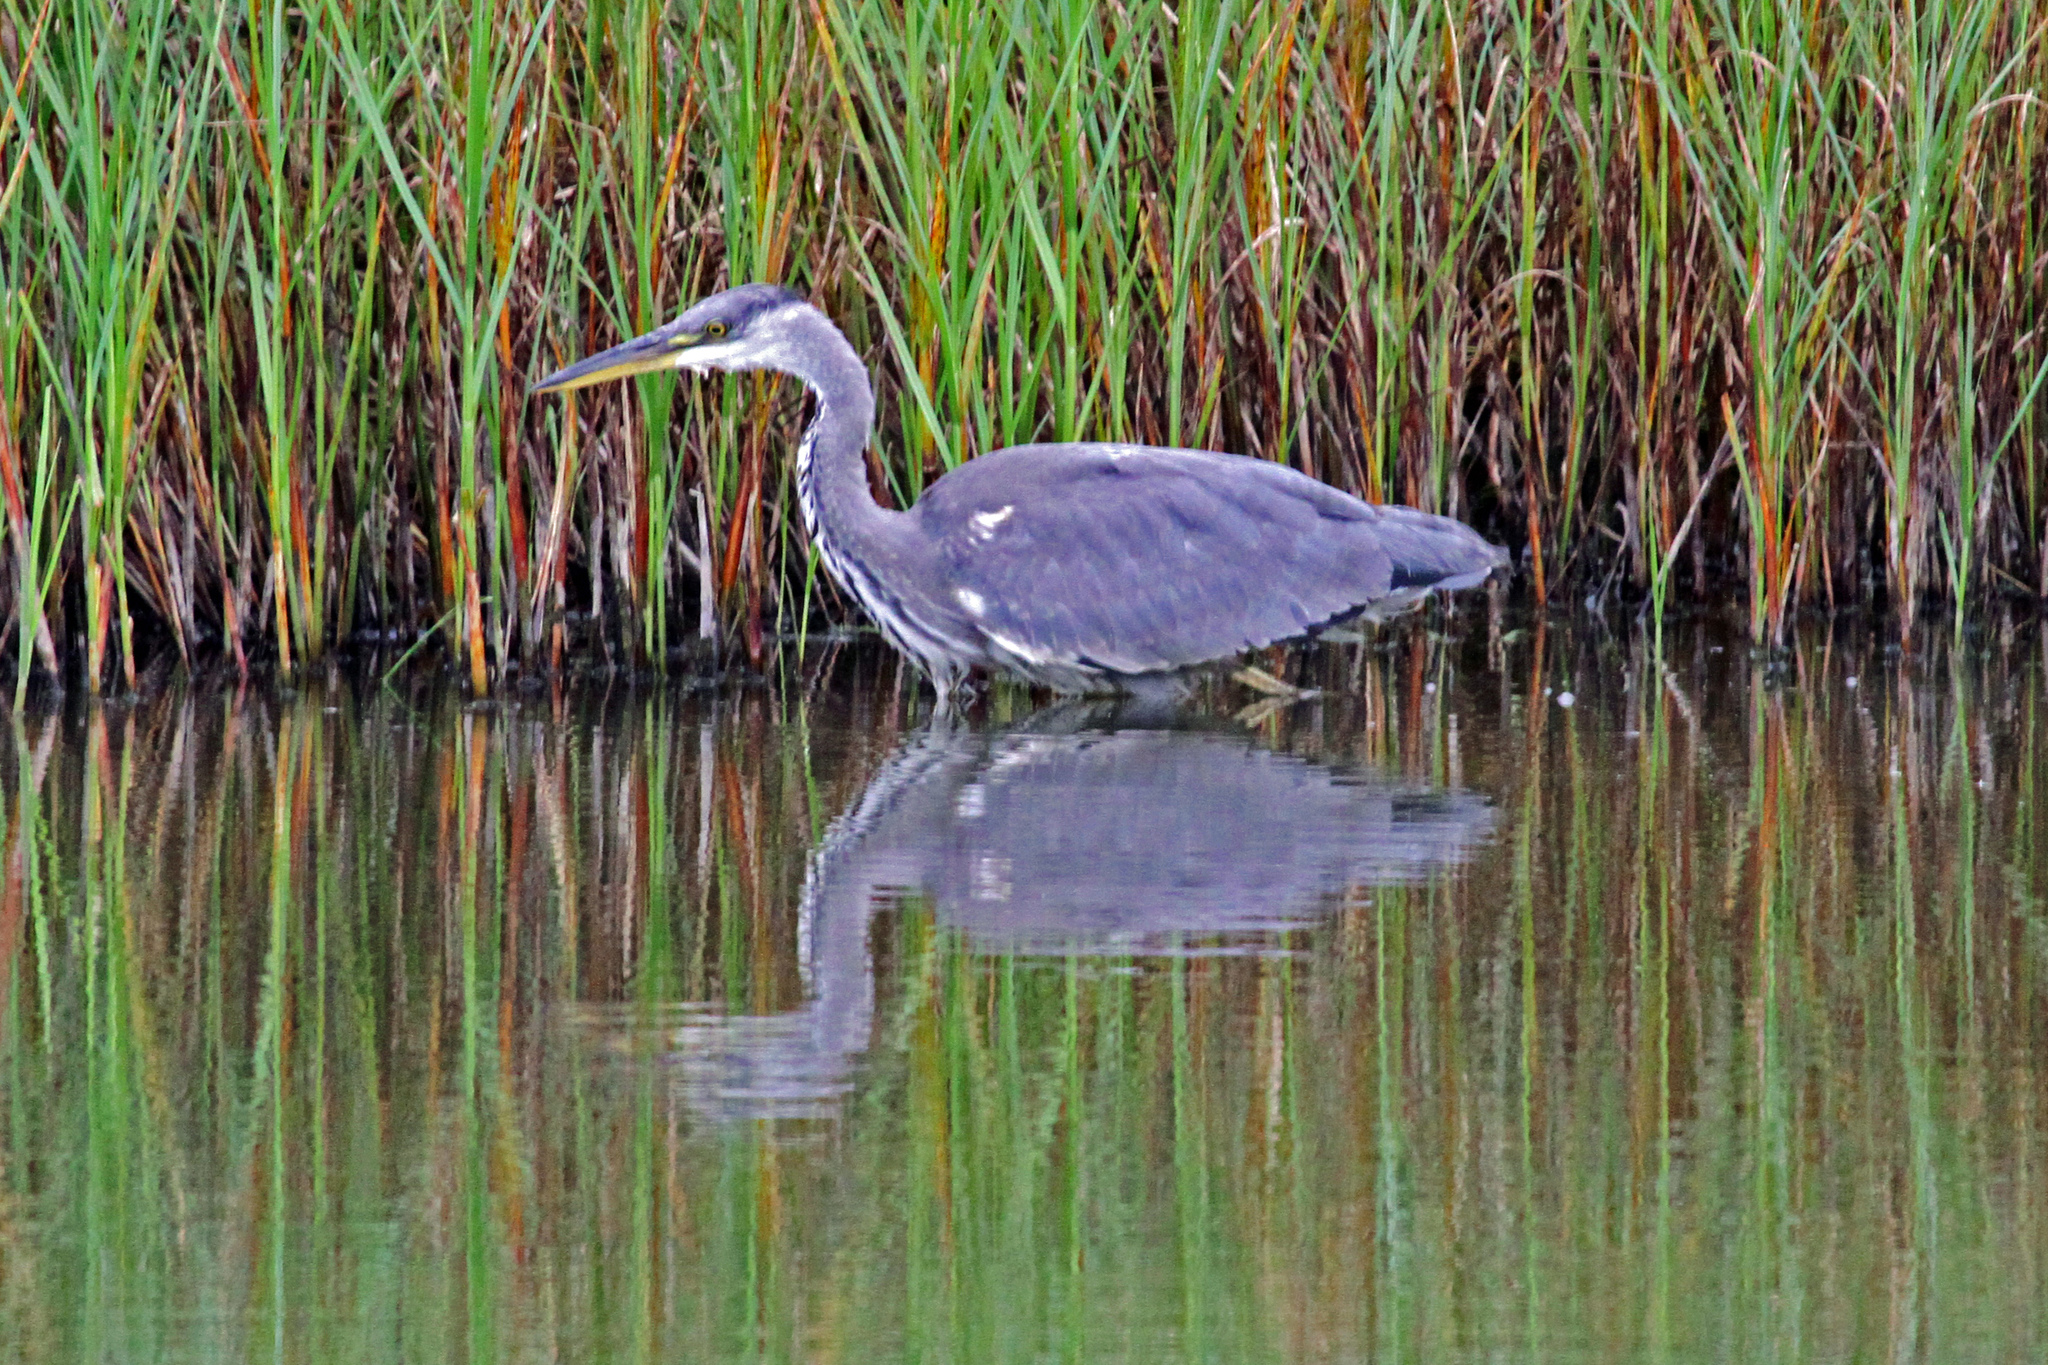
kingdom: Animalia
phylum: Chordata
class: Aves
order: Pelecaniformes
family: Ardeidae
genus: Ardea
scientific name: Ardea cinerea
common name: Grey heron
